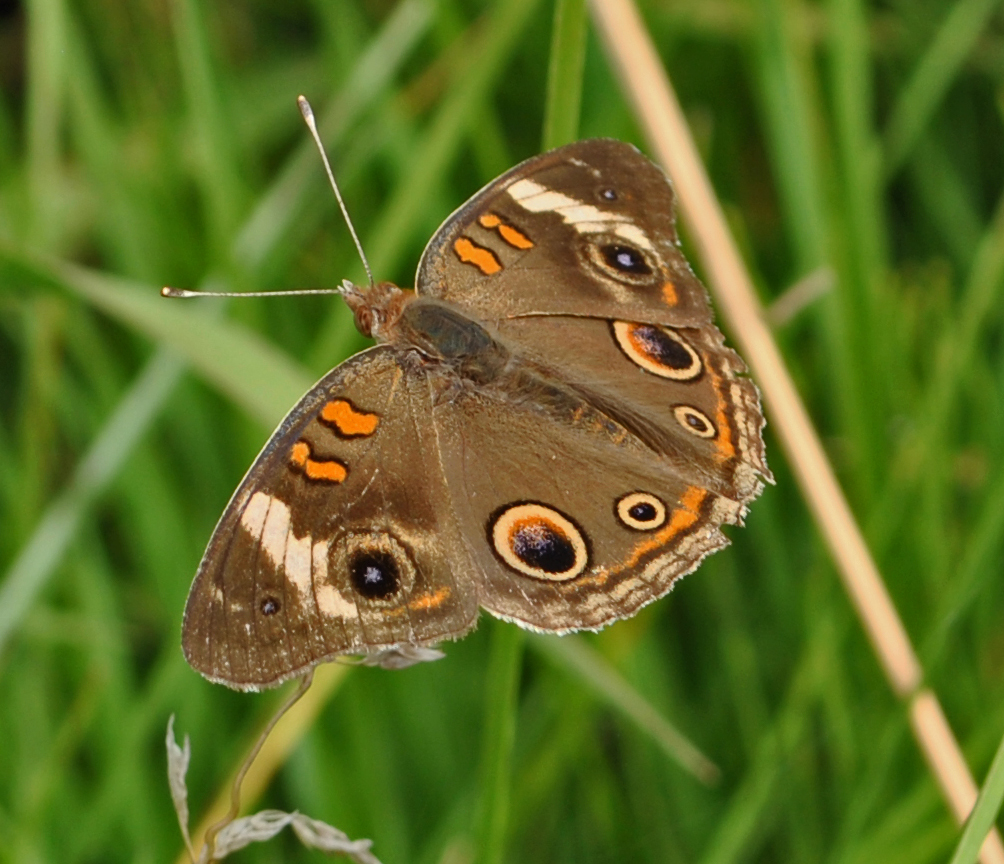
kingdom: Animalia
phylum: Arthropoda
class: Insecta
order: Lepidoptera
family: Nymphalidae
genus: Junonia
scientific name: Junonia coenia
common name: Common buckeye
